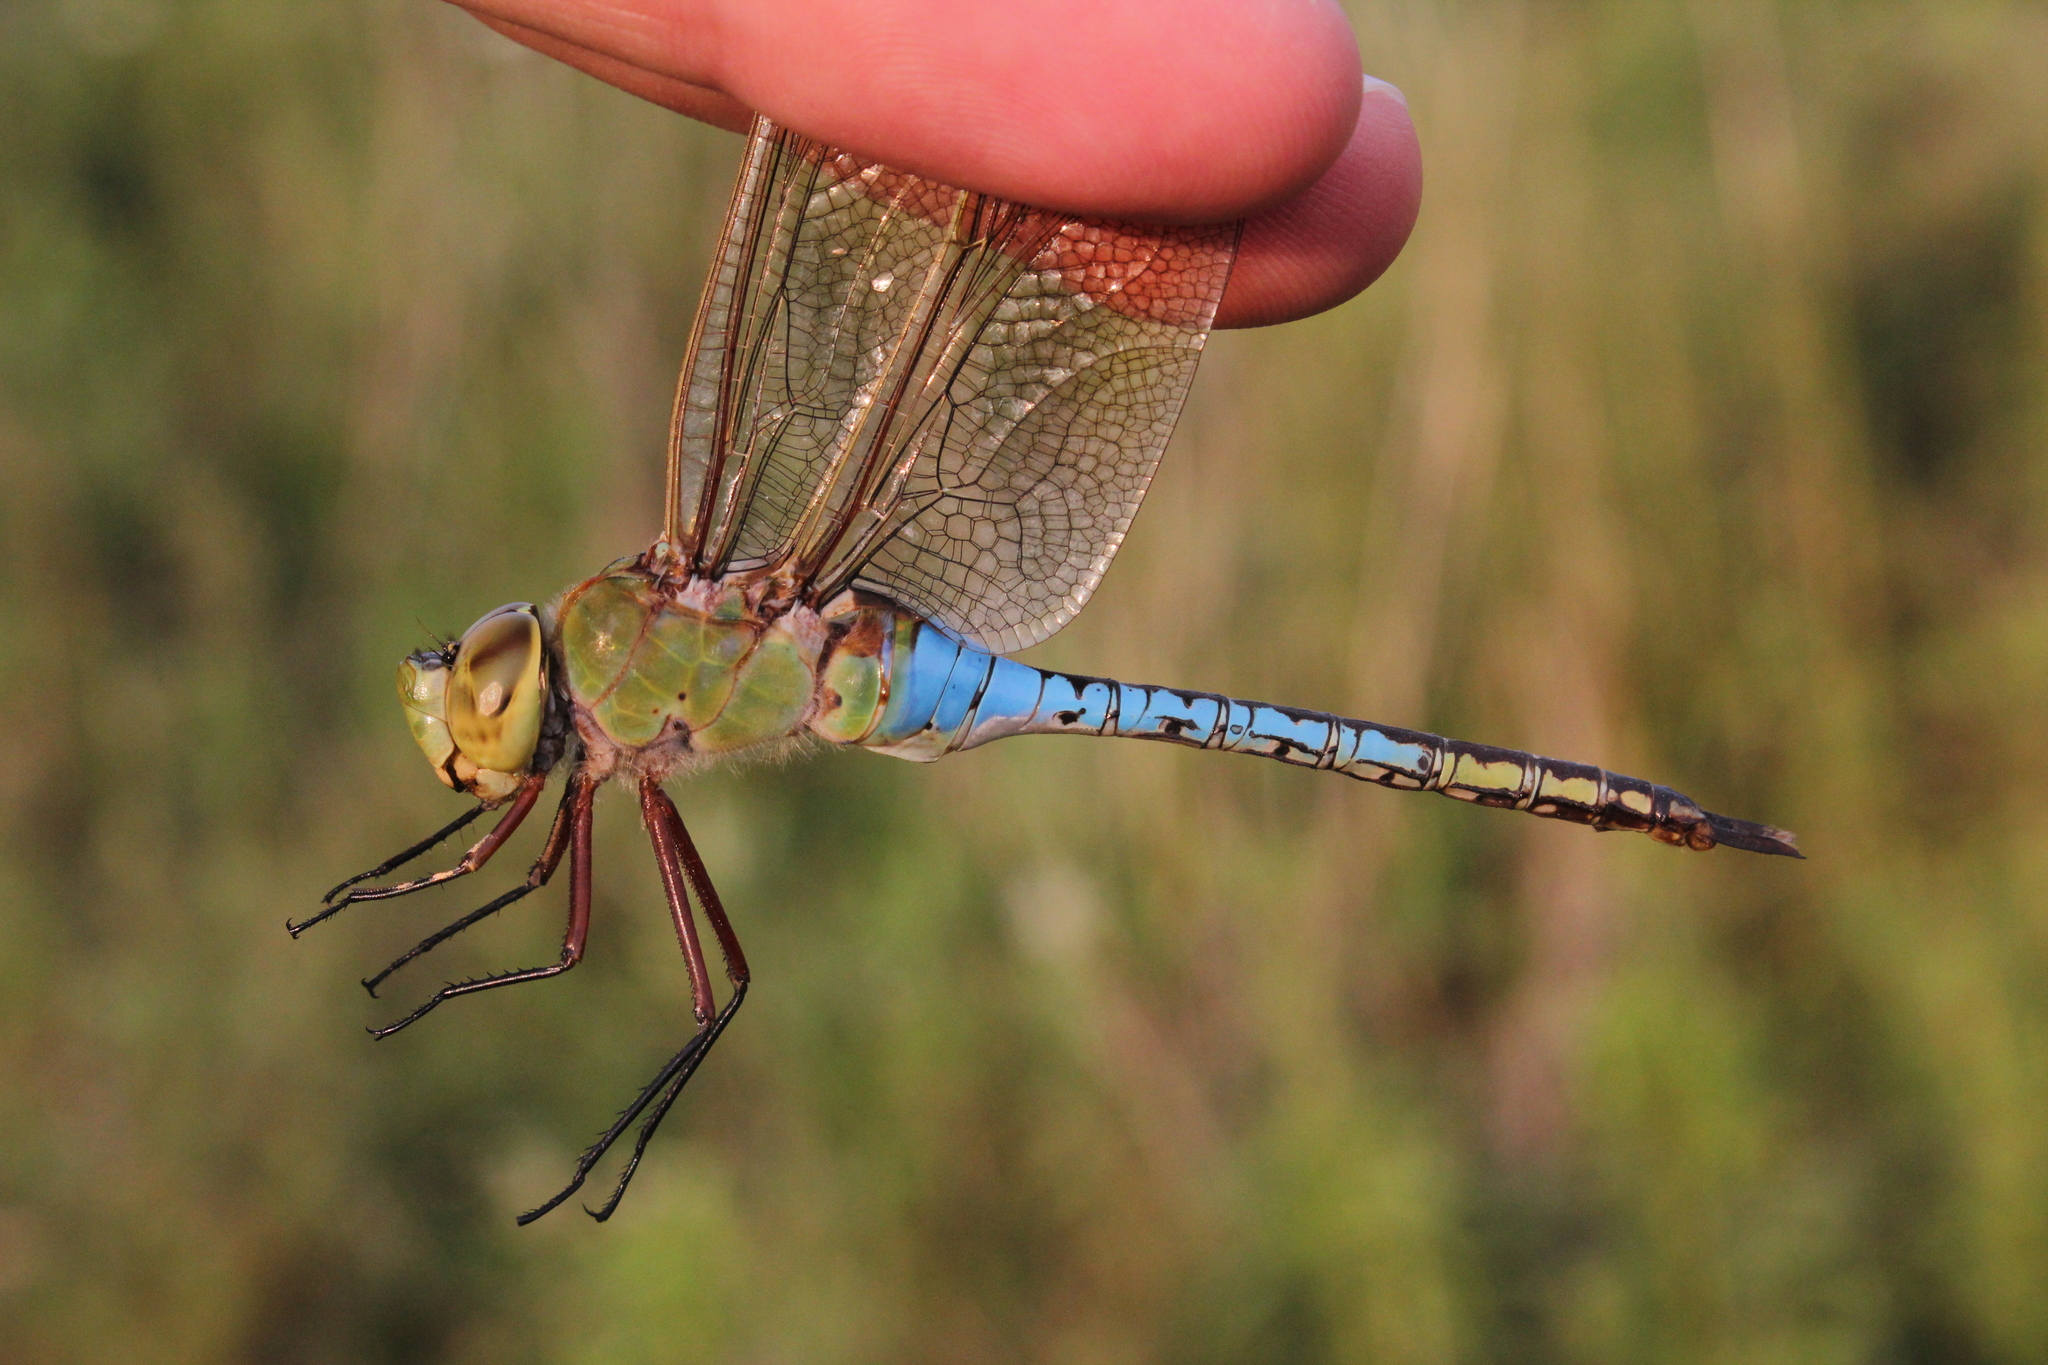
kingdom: Animalia
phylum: Arthropoda
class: Insecta
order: Odonata
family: Aeshnidae
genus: Anax
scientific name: Anax junius
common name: Common green darner
